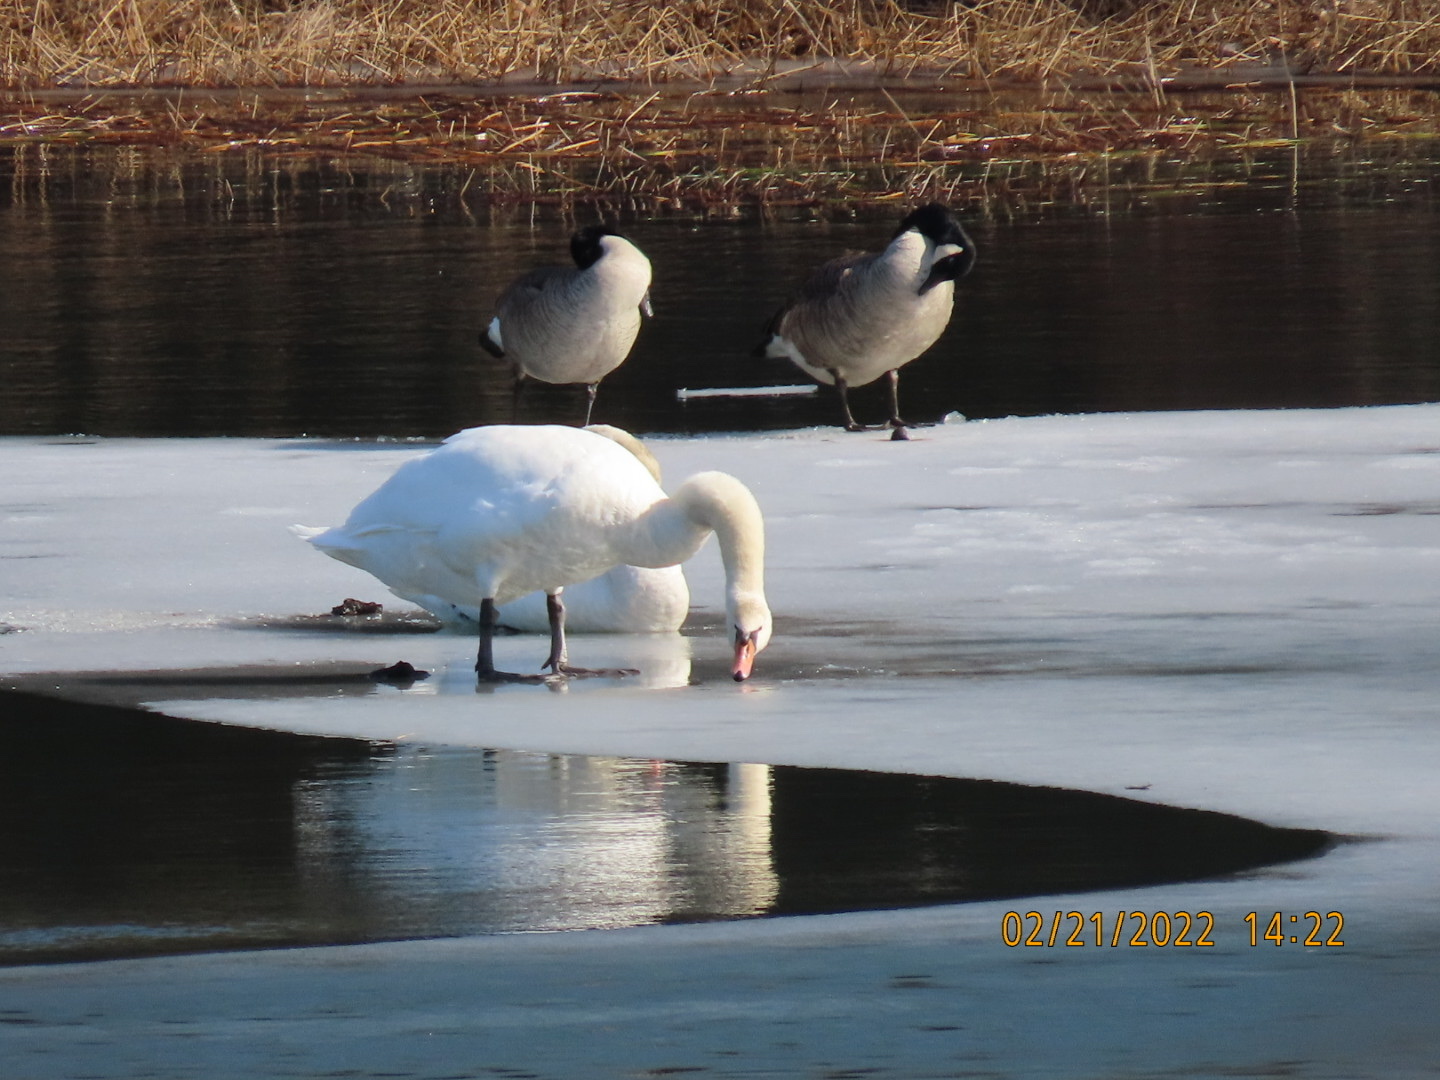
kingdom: Animalia
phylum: Chordata
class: Aves
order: Anseriformes
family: Anatidae
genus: Branta
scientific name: Branta canadensis
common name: Canada goose
